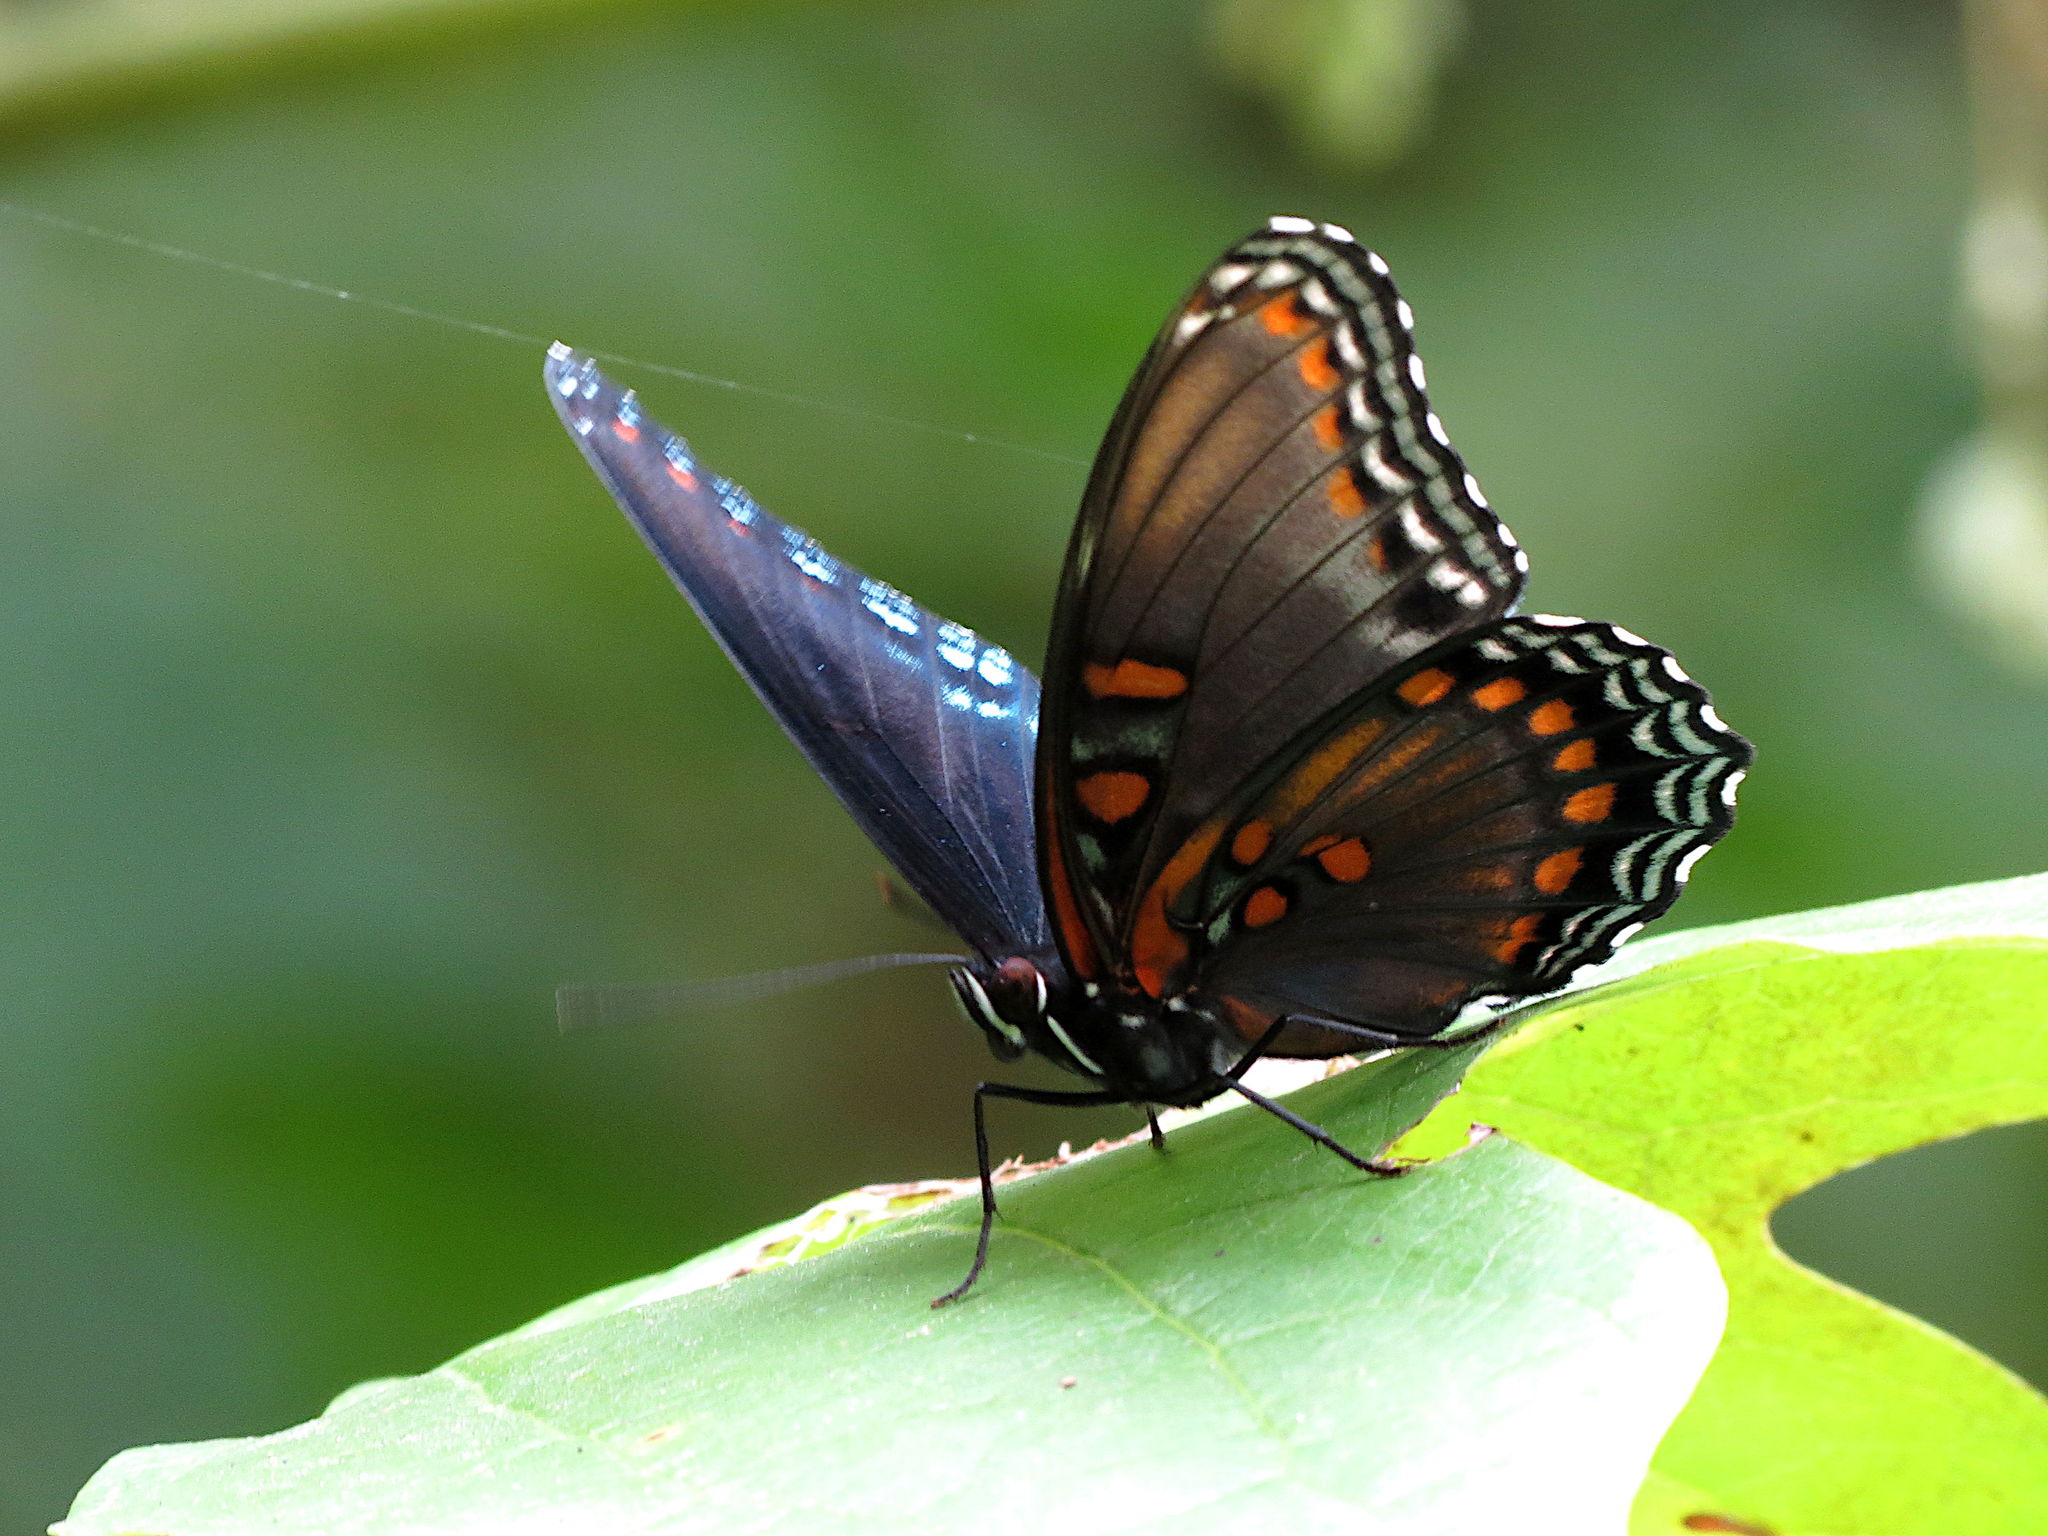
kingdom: Animalia
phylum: Arthropoda
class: Insecta
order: Lepidoptera
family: Nymphalidae
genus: Limenitis
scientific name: Limenitis arthemis
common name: Red-spotted admiral
